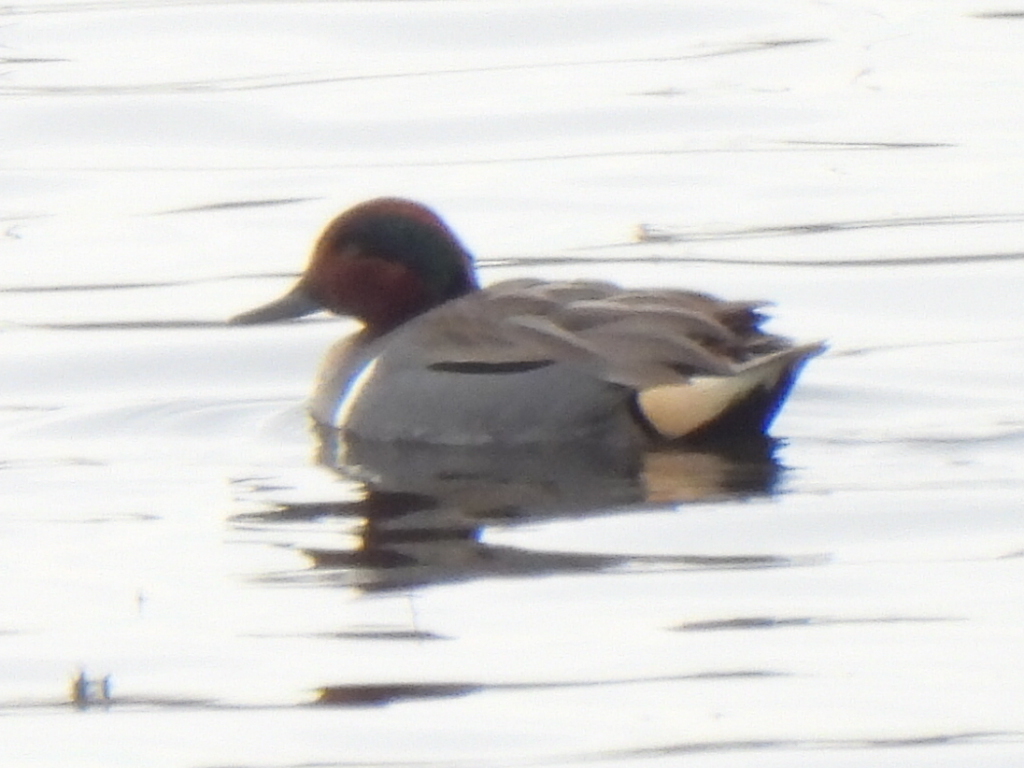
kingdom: Animalia
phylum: Chordata
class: Aves
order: Anseriformes
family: Anatidae
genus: Anas
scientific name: Anas crecca
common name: Eurasian teal
